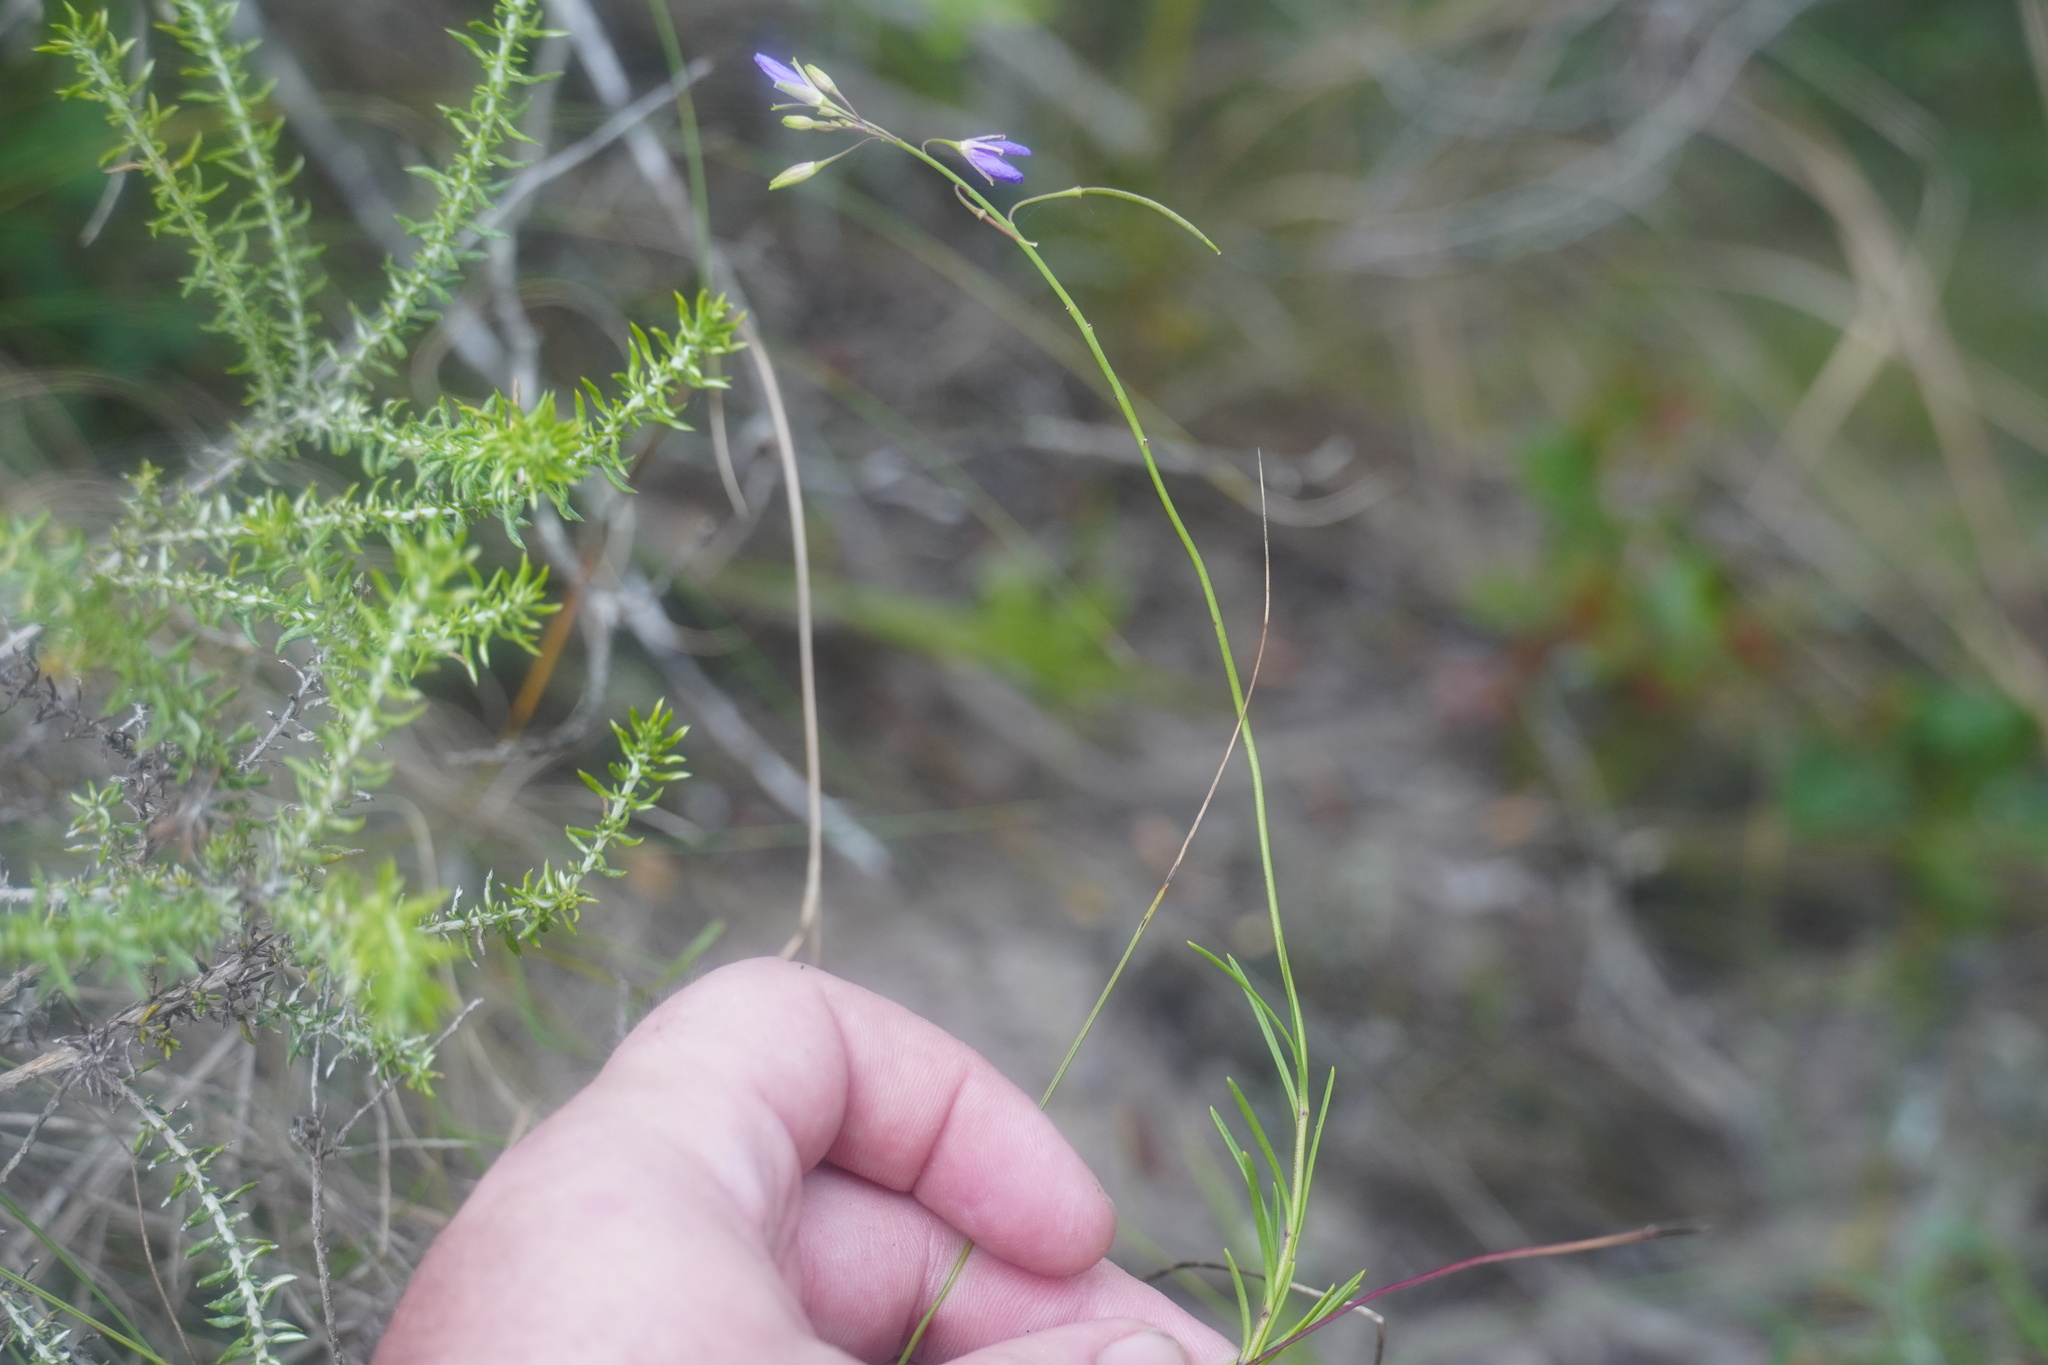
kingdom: Plantae
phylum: Tracheophyta
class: Magnoliopsida
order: Brassicales
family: Brassicaceae
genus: Heliophila
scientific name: Heliophila subulata
